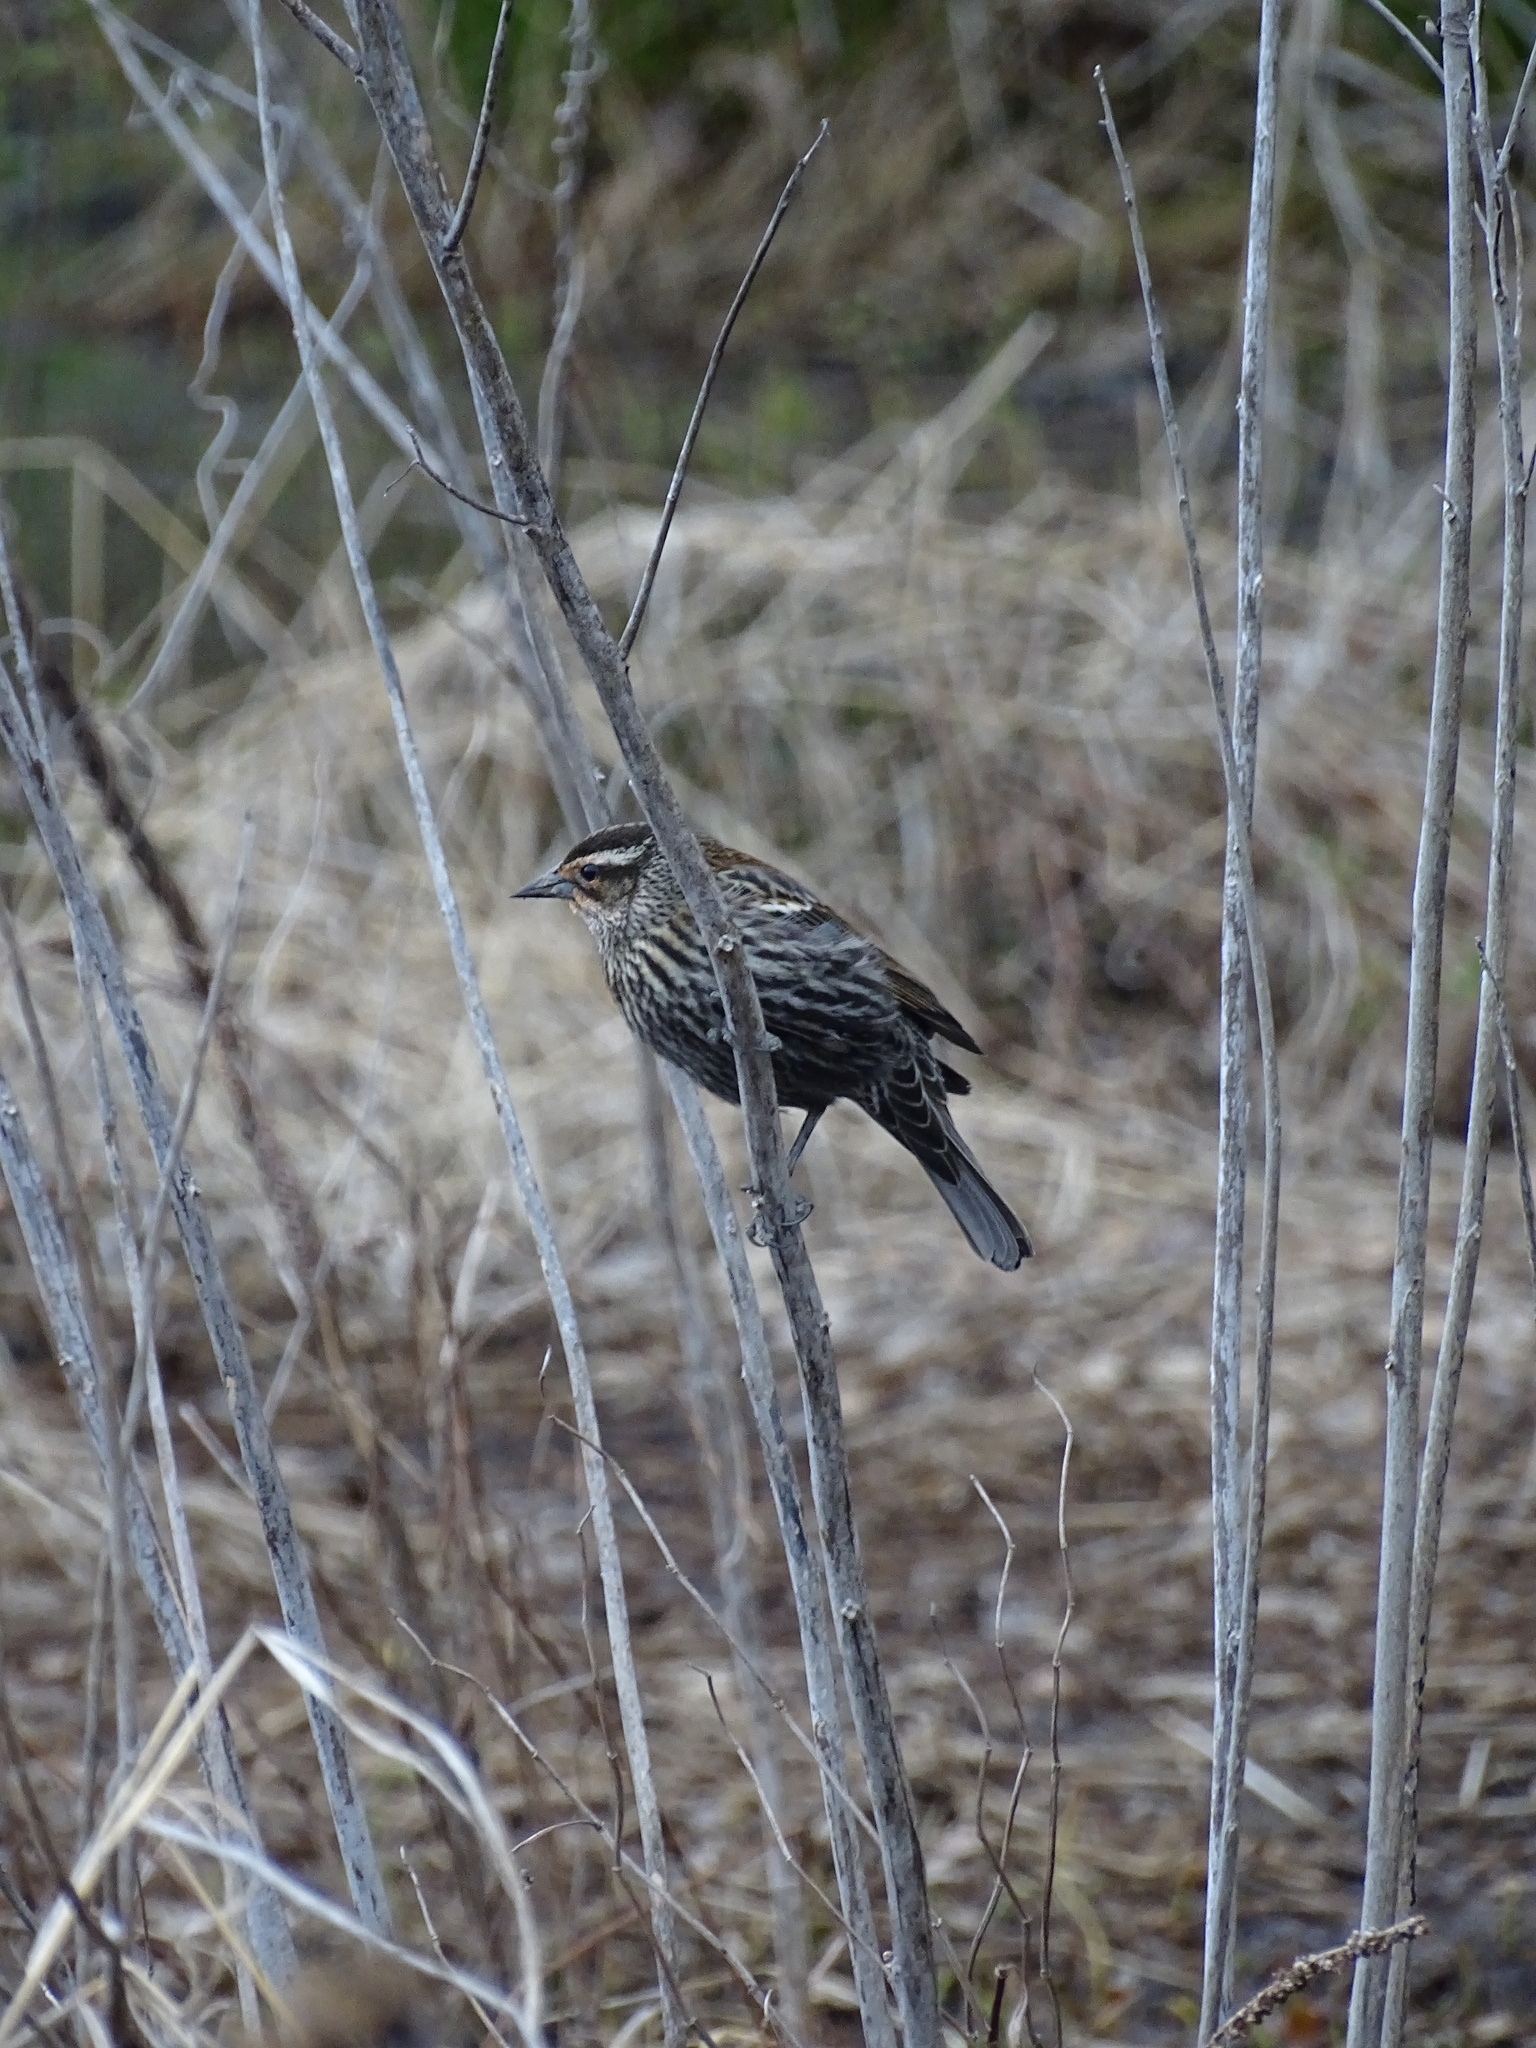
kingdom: Animalia
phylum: Chordata
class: Aves
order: Passeriformes
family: Icteridae
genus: Agelaius
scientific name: Agelaius phoeniceus
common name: Red-winged blackbird
